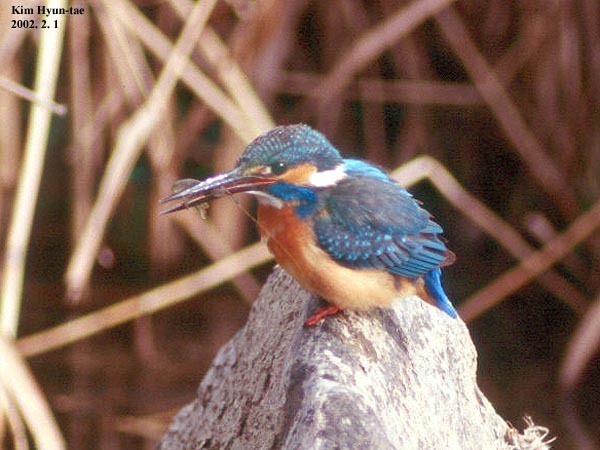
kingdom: Animalia
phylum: Chordata
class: Aves
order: Coraciiformes
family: Alcedinidae
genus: Alcedo
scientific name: Alcedo atthis
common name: Common kingfisher
